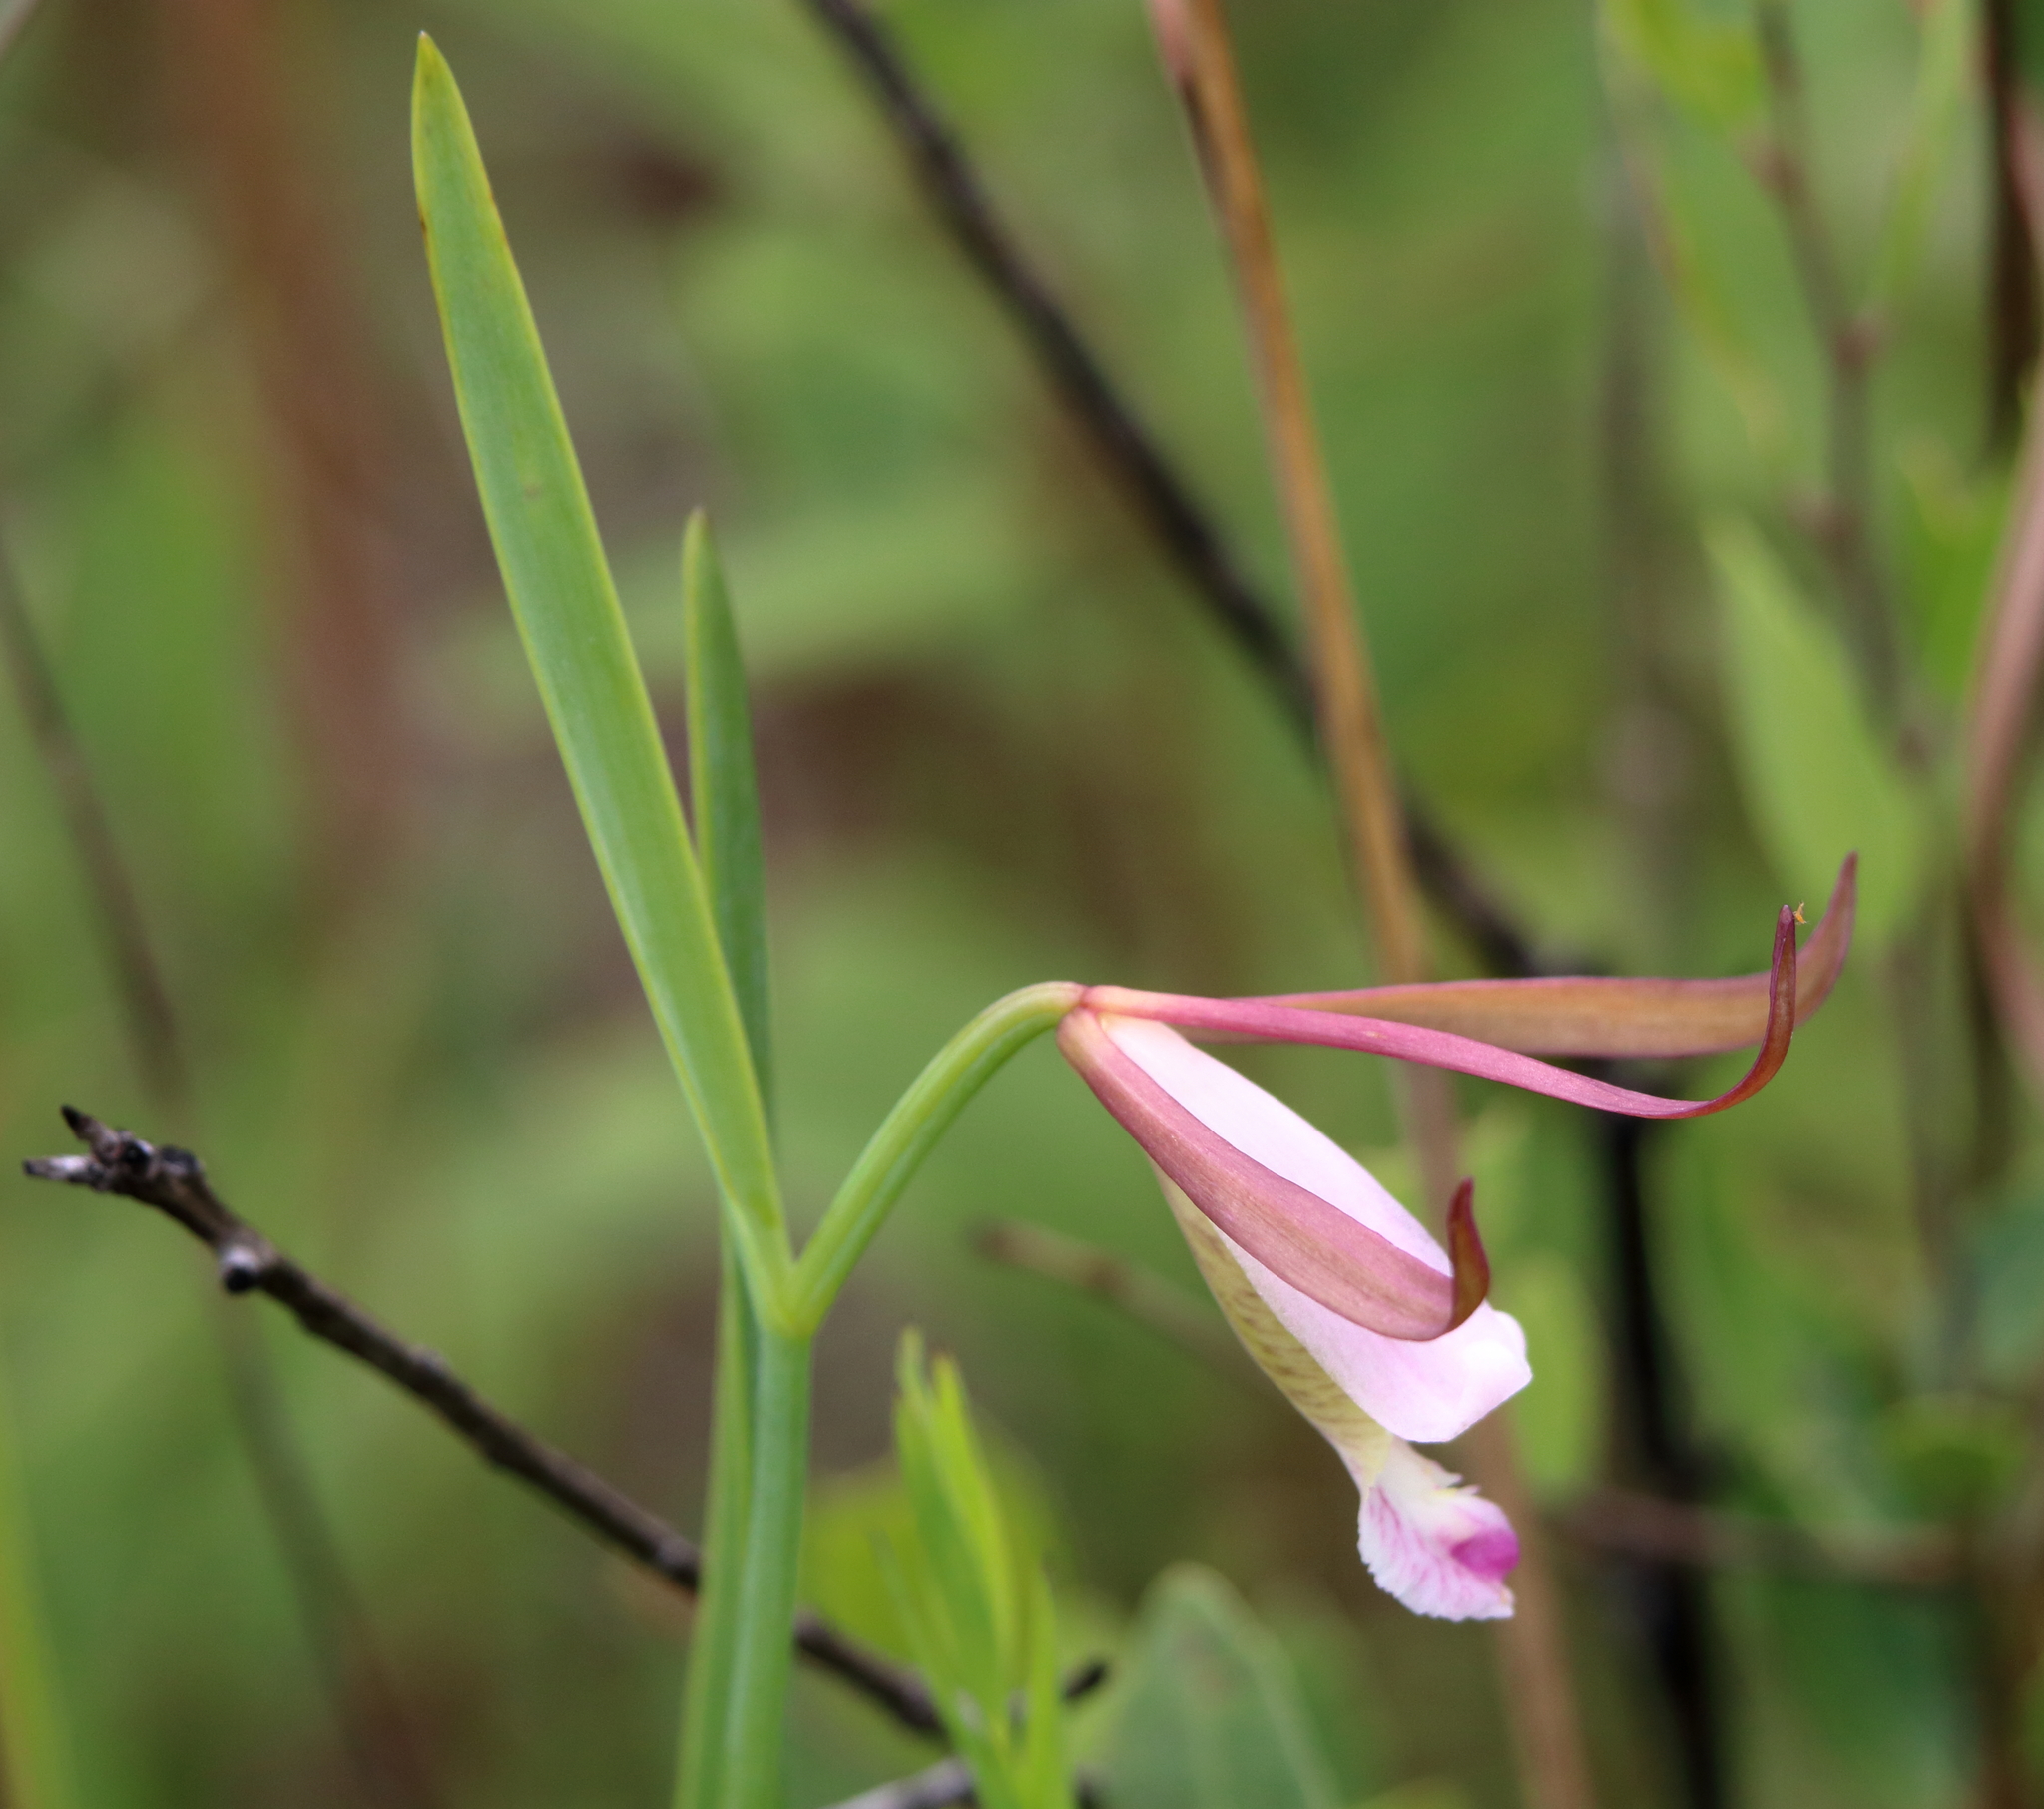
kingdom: Plantae
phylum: Tracheophyta
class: Liliopsida
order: Asparagales
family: Orchidaceae
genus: Cleistesiopsis
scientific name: Cleistesiopsis oricamporum
